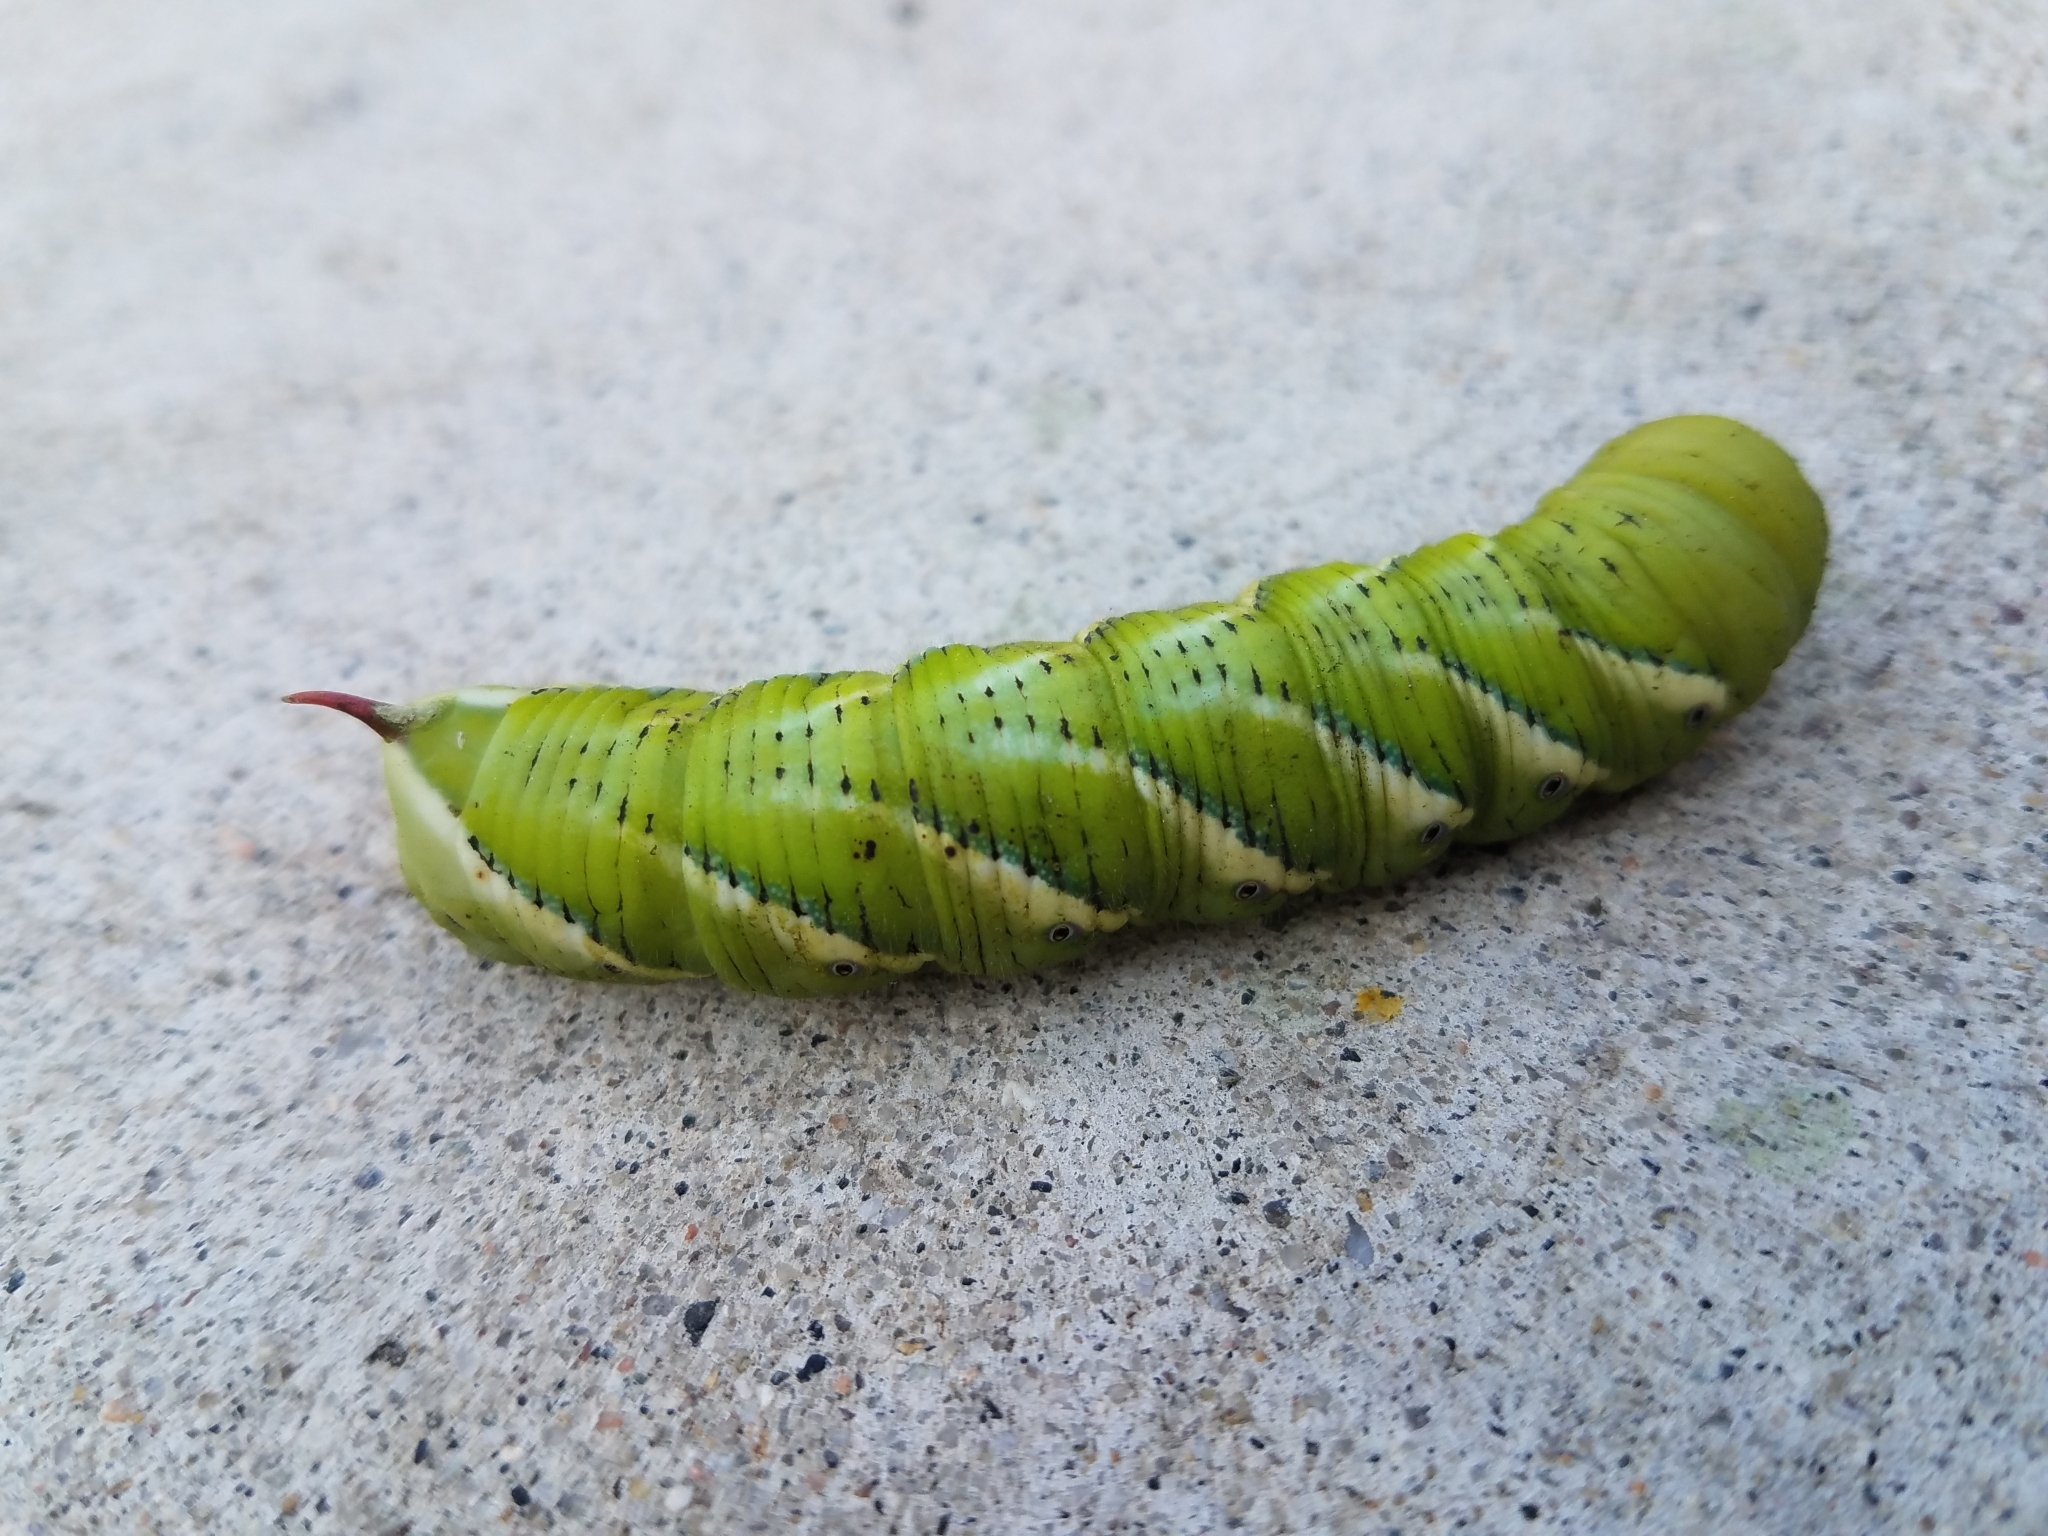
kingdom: Animalia
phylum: Arthropoda
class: Insecta
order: Lepidoptera
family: Sphingidae
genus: Manduca
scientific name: Manduca sexta
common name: Carolina sphinx
